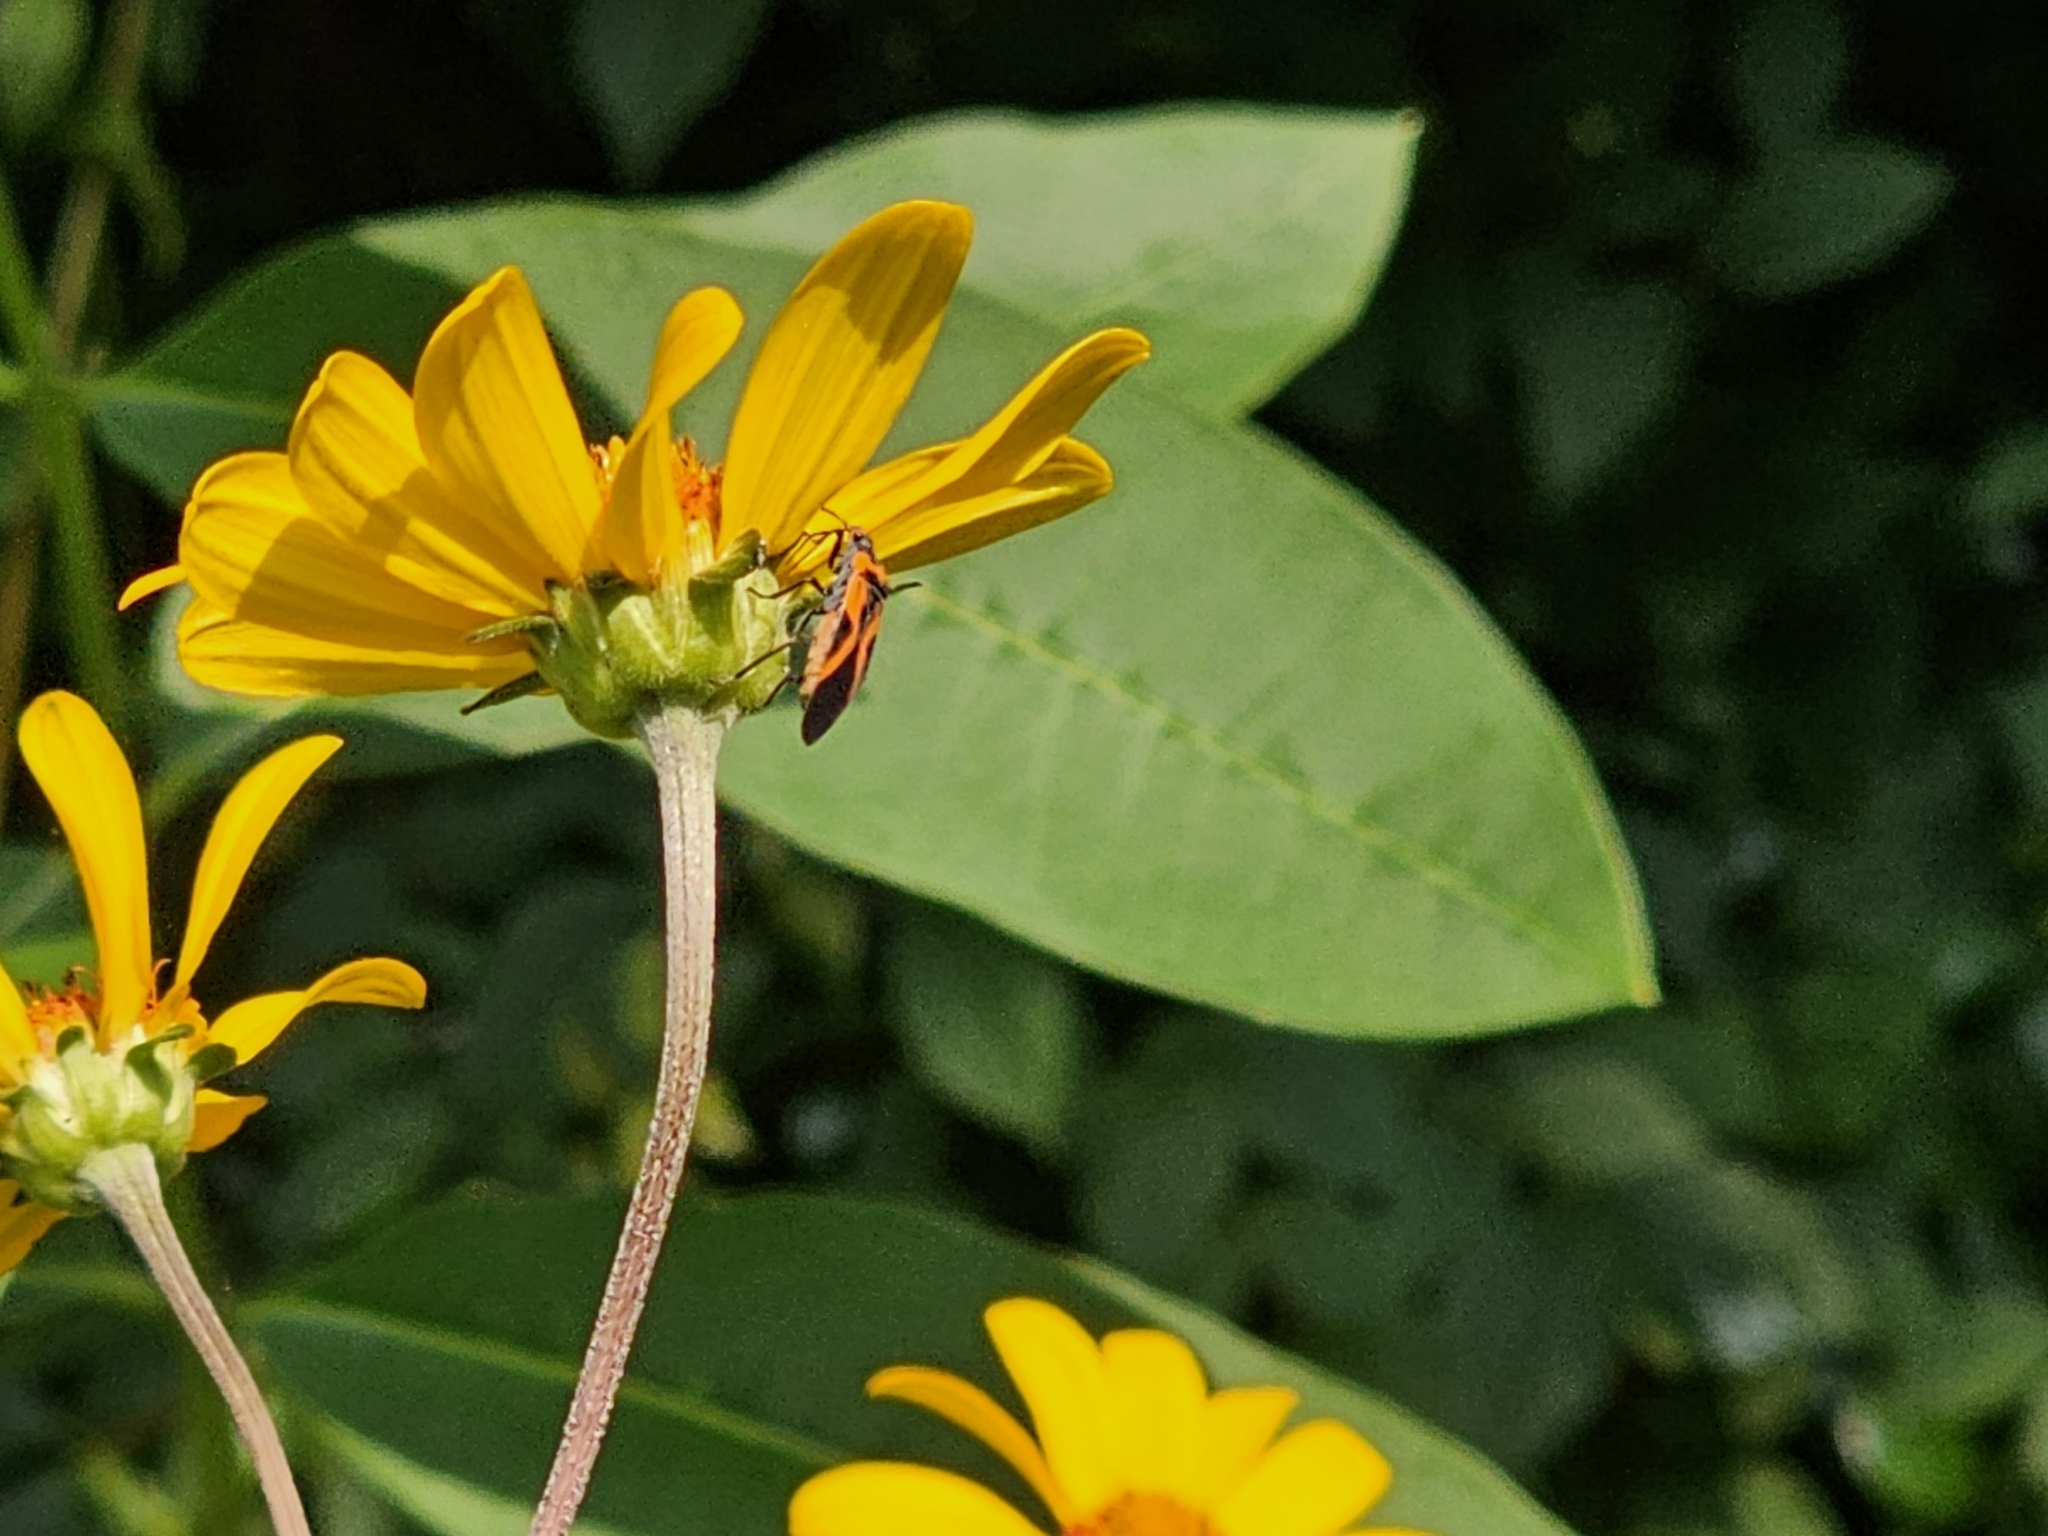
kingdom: Animalia
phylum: Arthropoda
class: Insecta
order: Hemiptera
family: Lygaeidae
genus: Lygaeus
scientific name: Lygaeus turcicus
